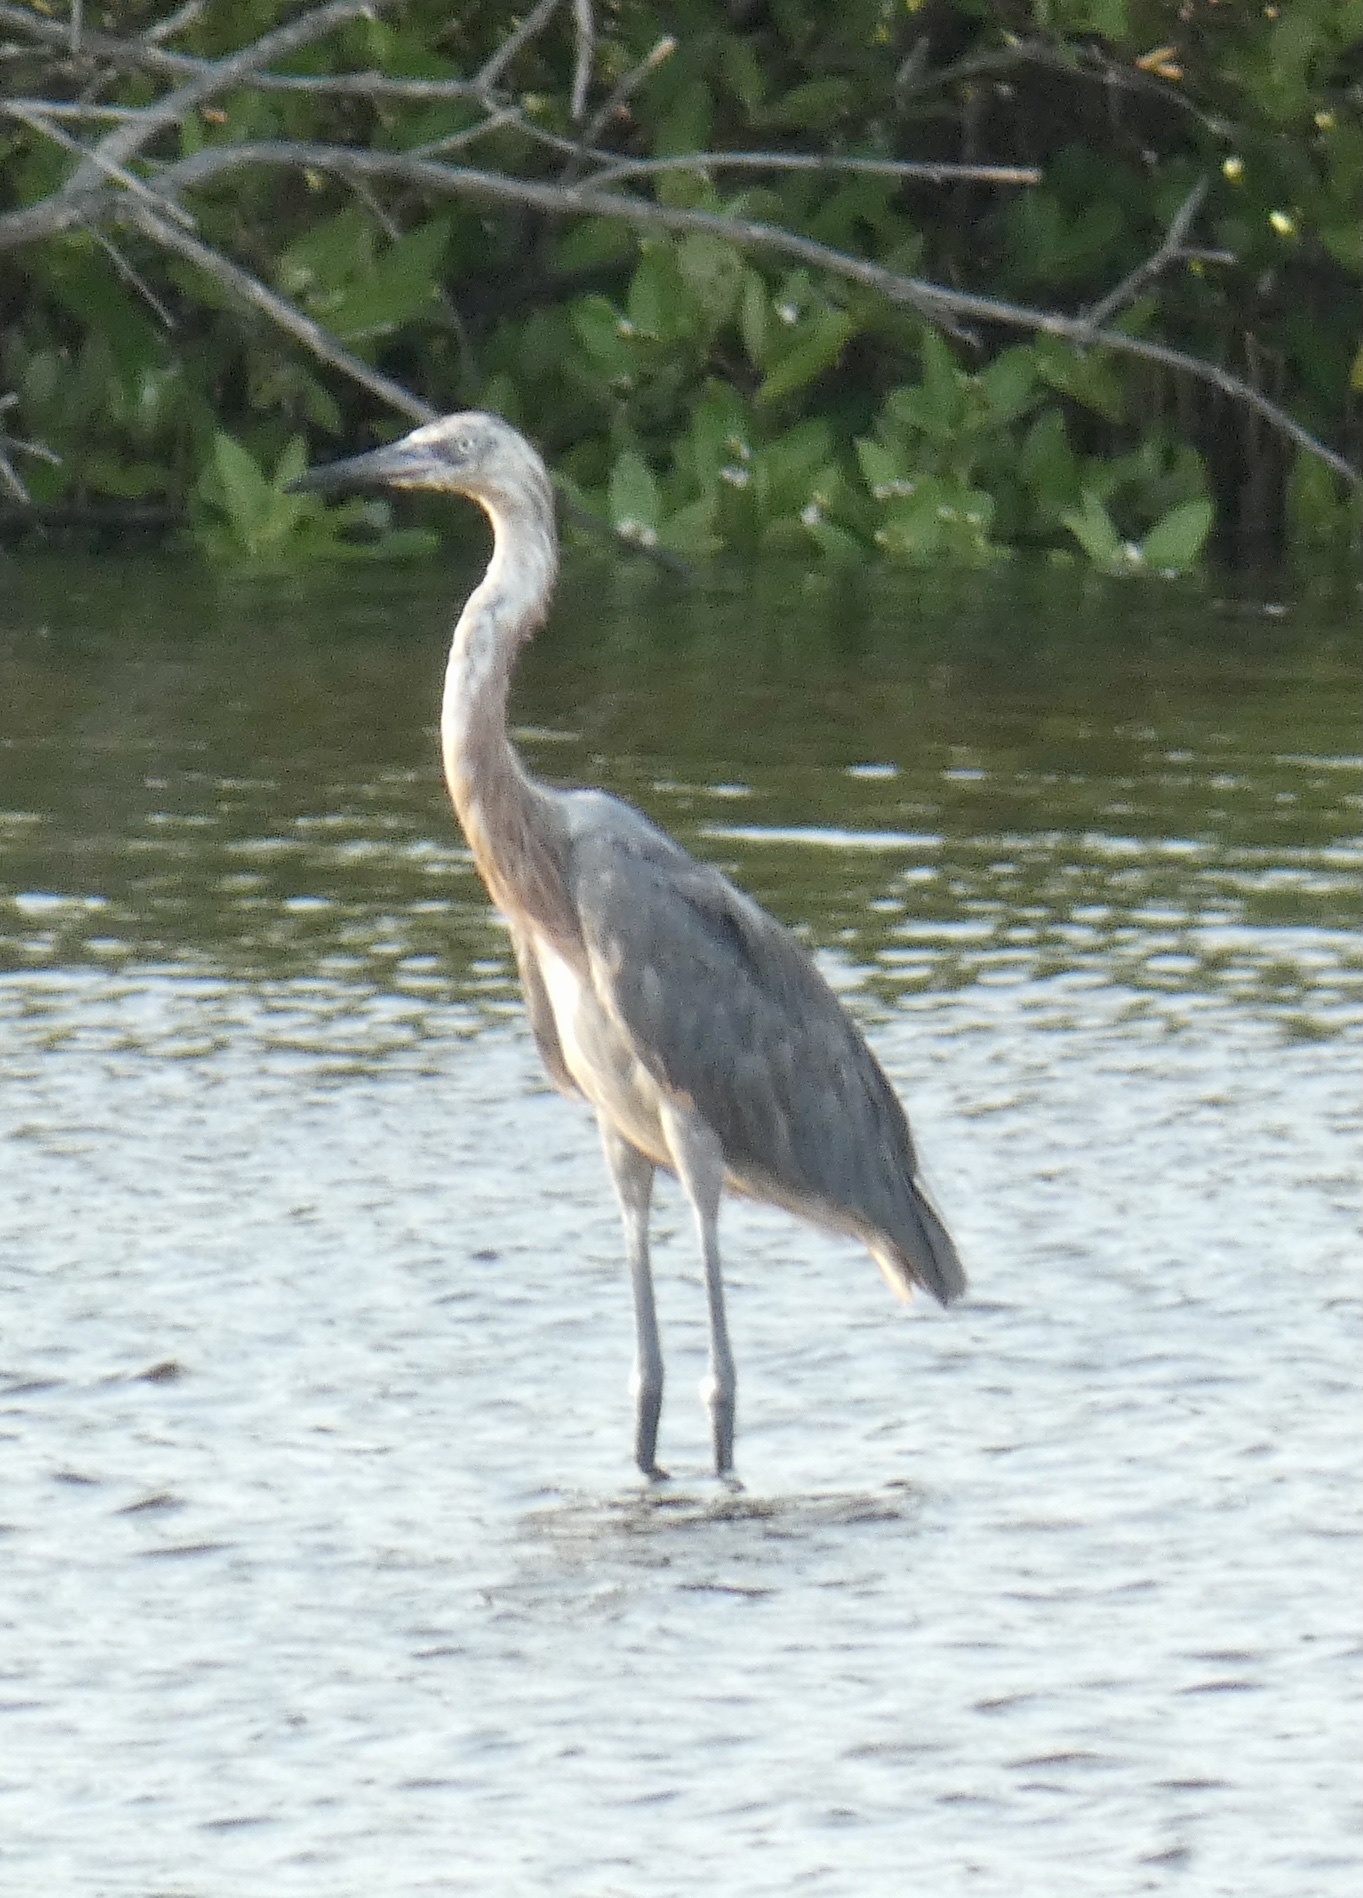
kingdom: Animalia
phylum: Chordata
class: Aves
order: Pelecaniformes
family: Ardeidae
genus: Egretta
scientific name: Egretta rufescens
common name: Reddish egret
